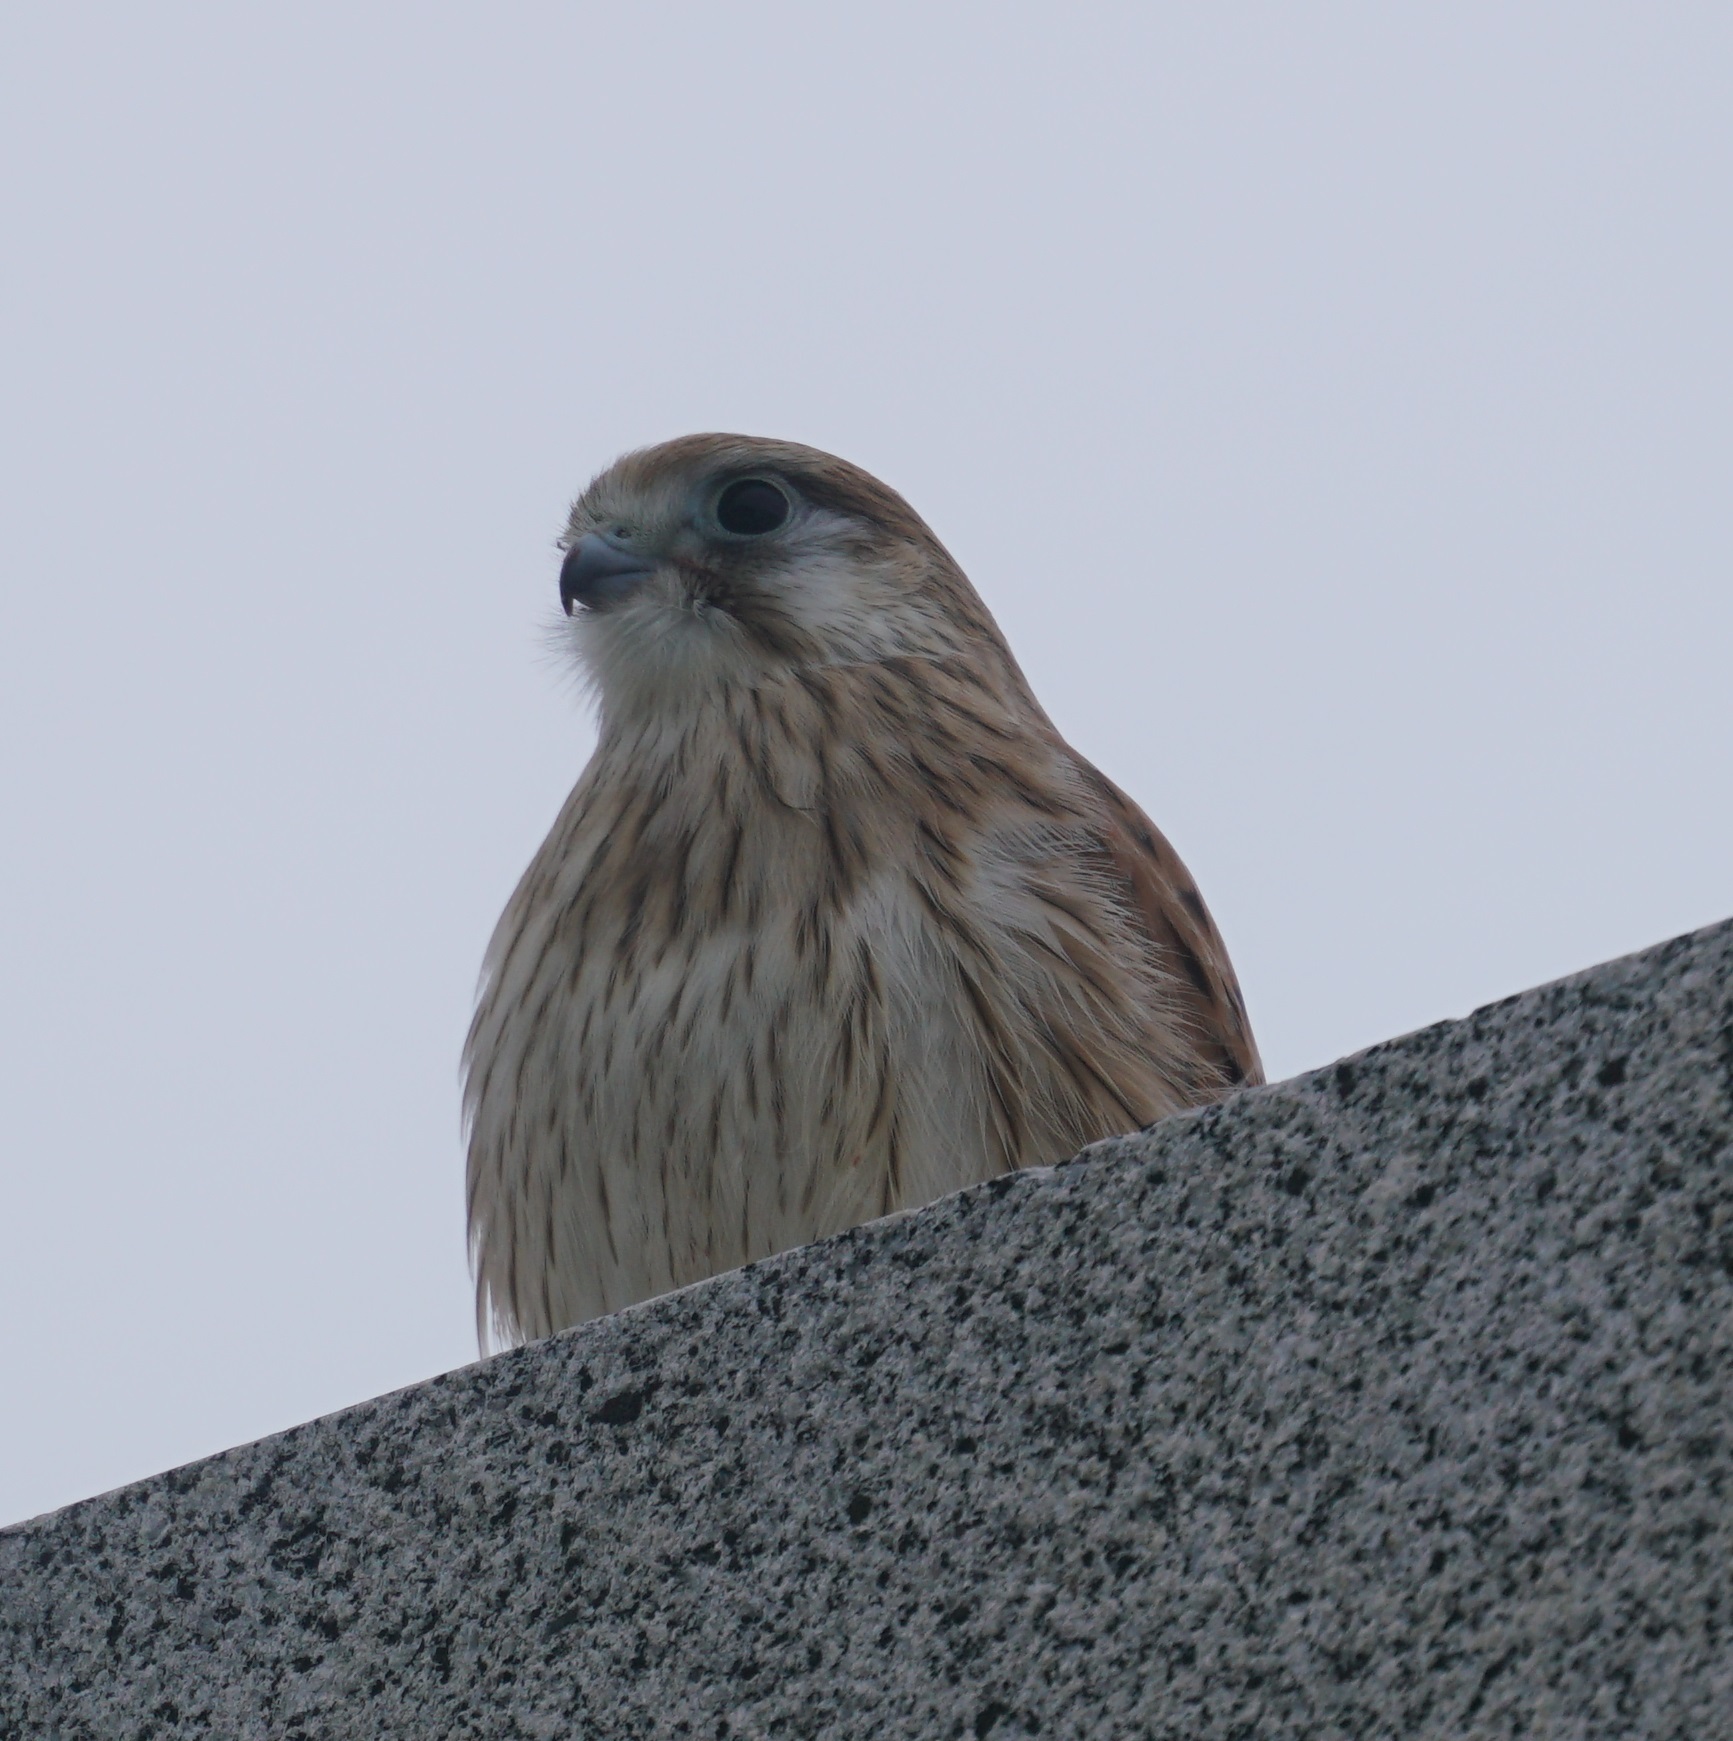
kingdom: Animalia
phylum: Chordata
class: Aves
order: Falconiformes
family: Falconidae
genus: Falco
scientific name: Falco cenchroides
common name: Nankeen kestrel
